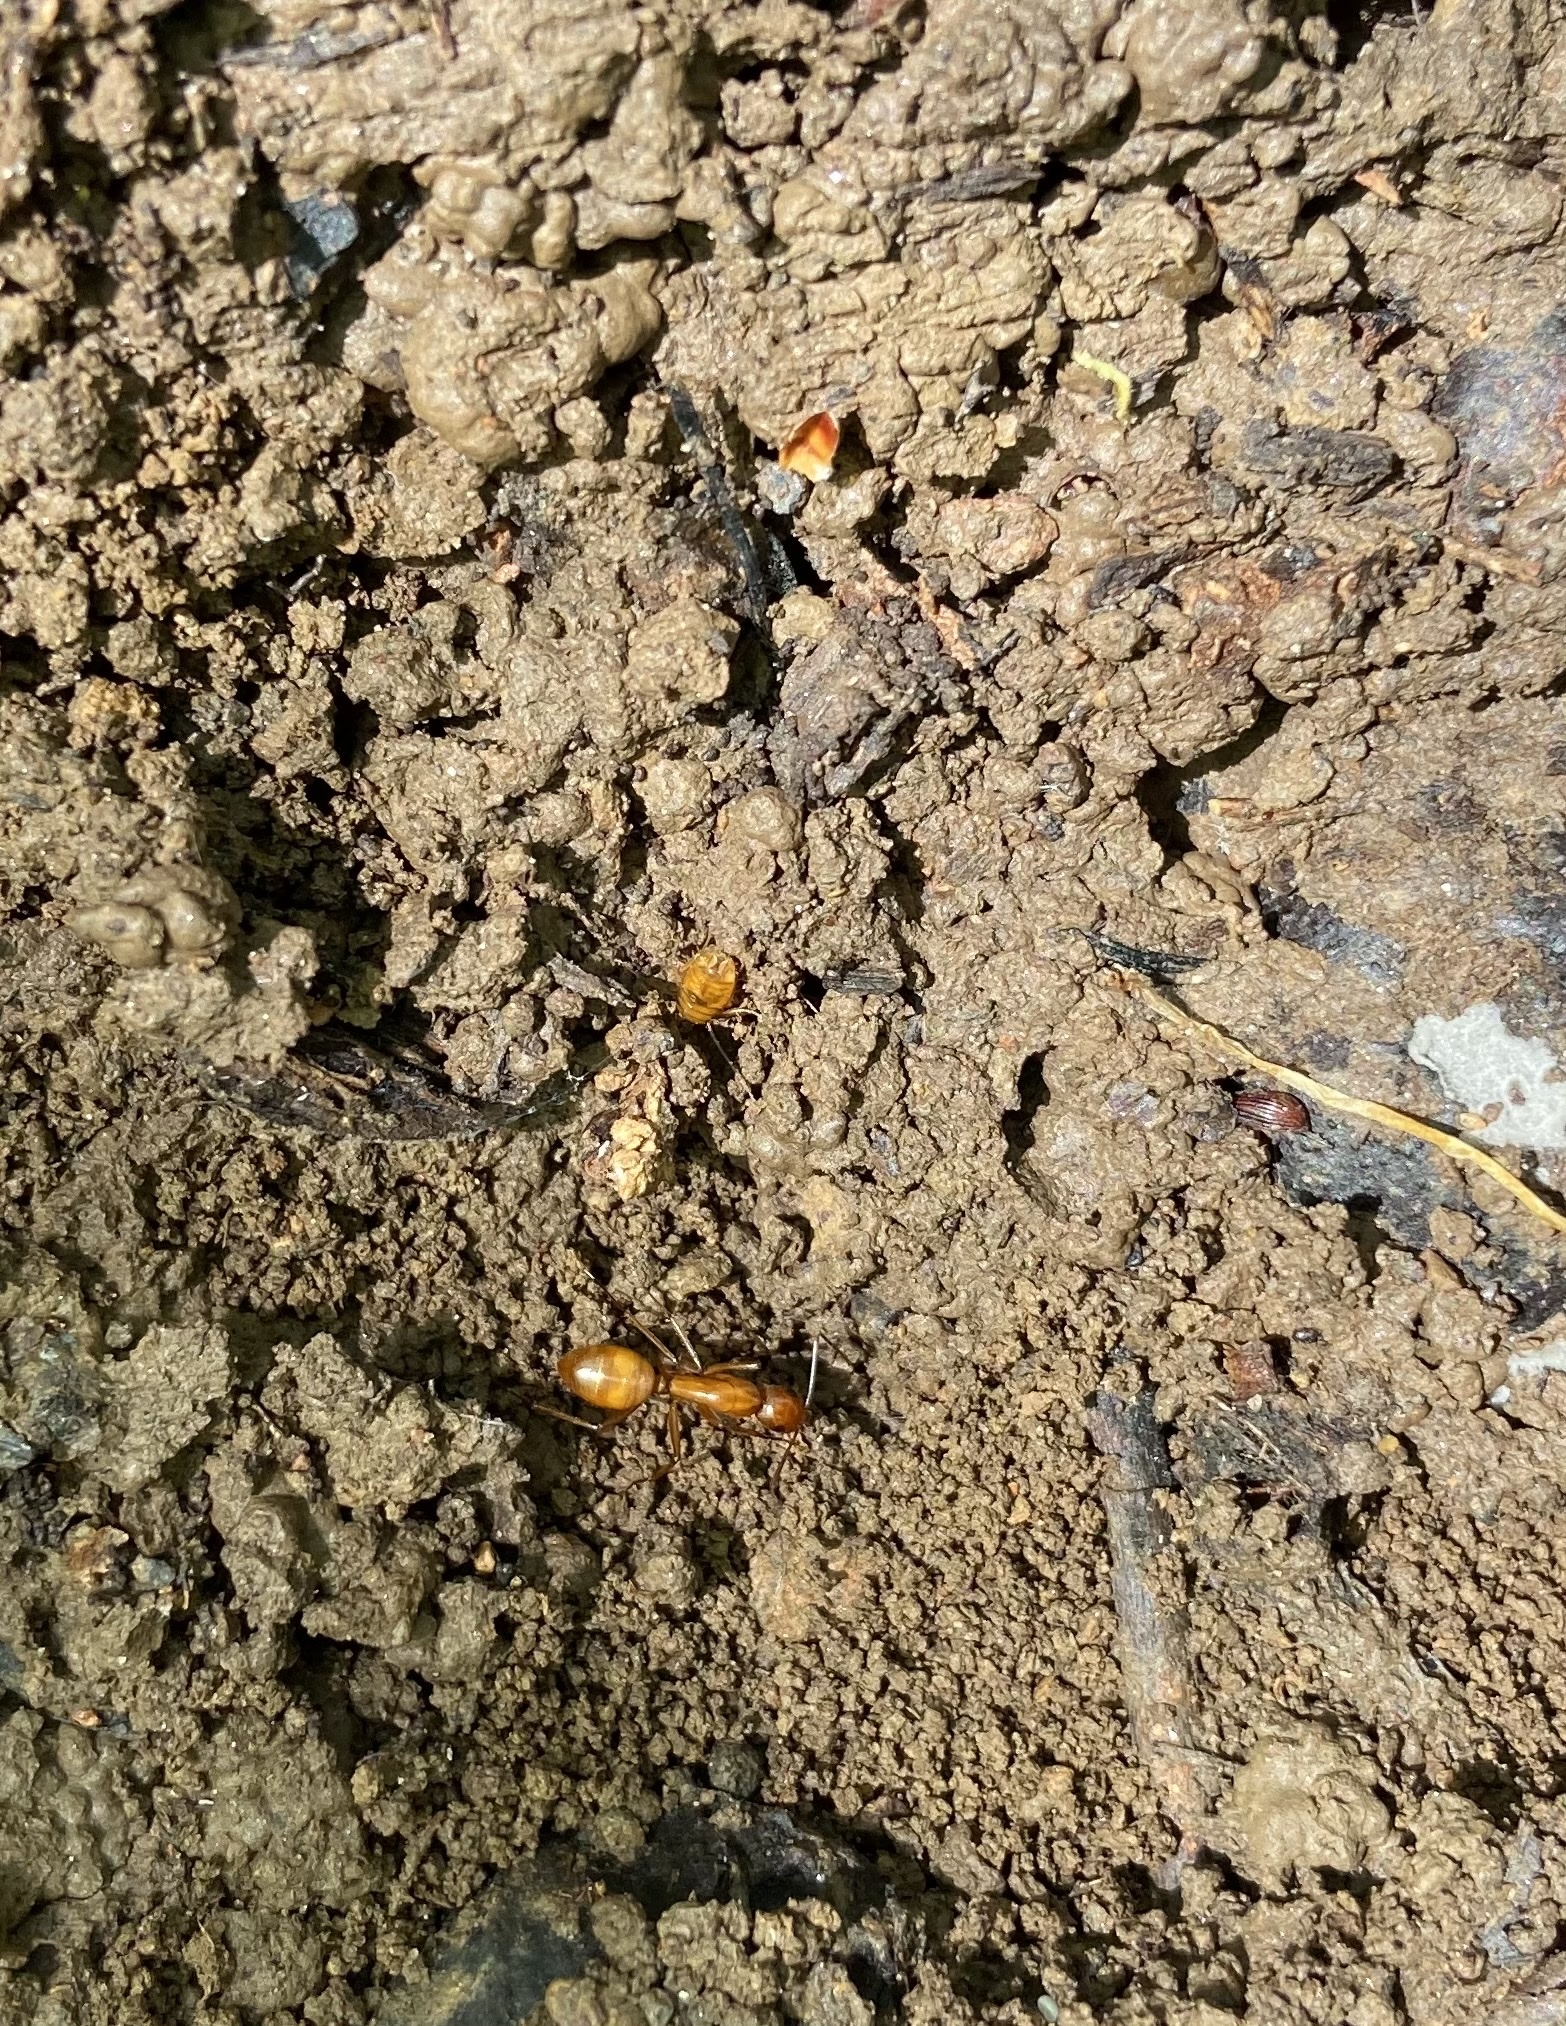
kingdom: Animalia
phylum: Arthropoda
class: Insecta
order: Hymenoptera
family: Formicidae
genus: Camponotus
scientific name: Camponotus castaneus
